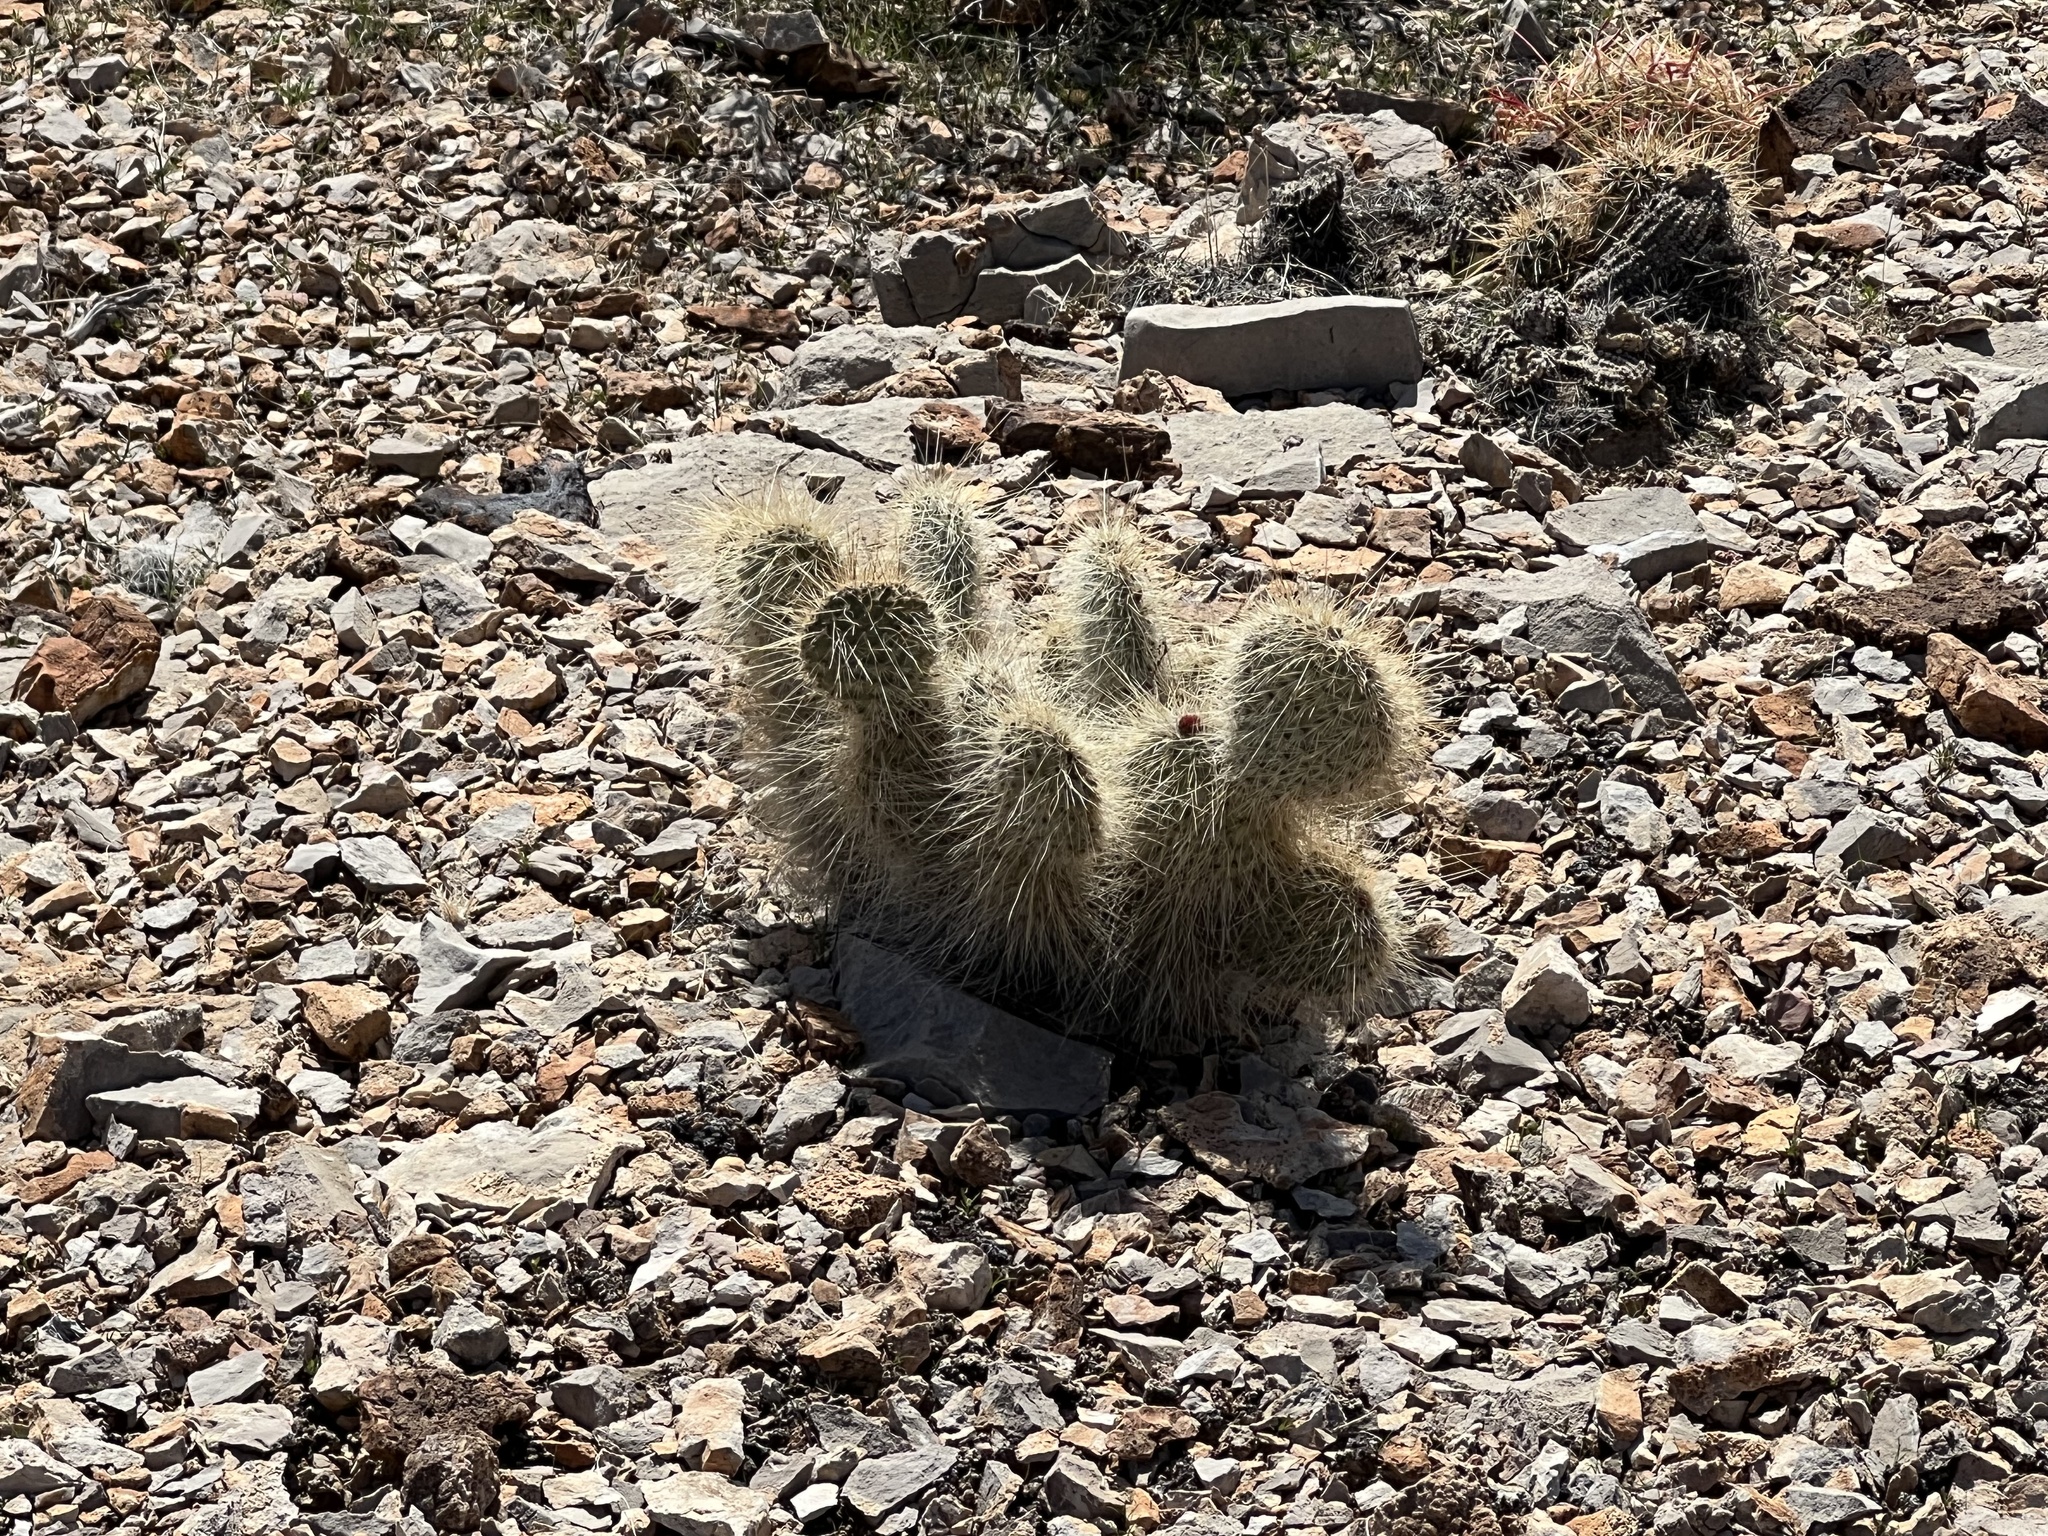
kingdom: Plantae
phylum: Tracheophyta
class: Magnoliopsida
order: Caryophyllales
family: Cactaceae
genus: Opuntia
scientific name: Opuntia polyacantha
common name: Plains prickly-pear
